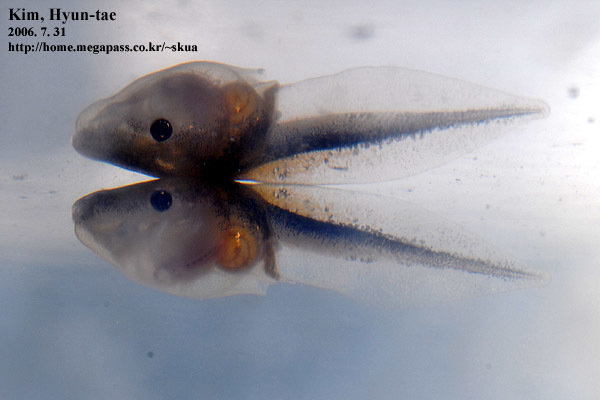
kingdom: Animalia
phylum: Chordata
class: Amphibia
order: Anura
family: Microhylidae
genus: Kaloula
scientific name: Kaloula borealis
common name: Boreal digging frog
